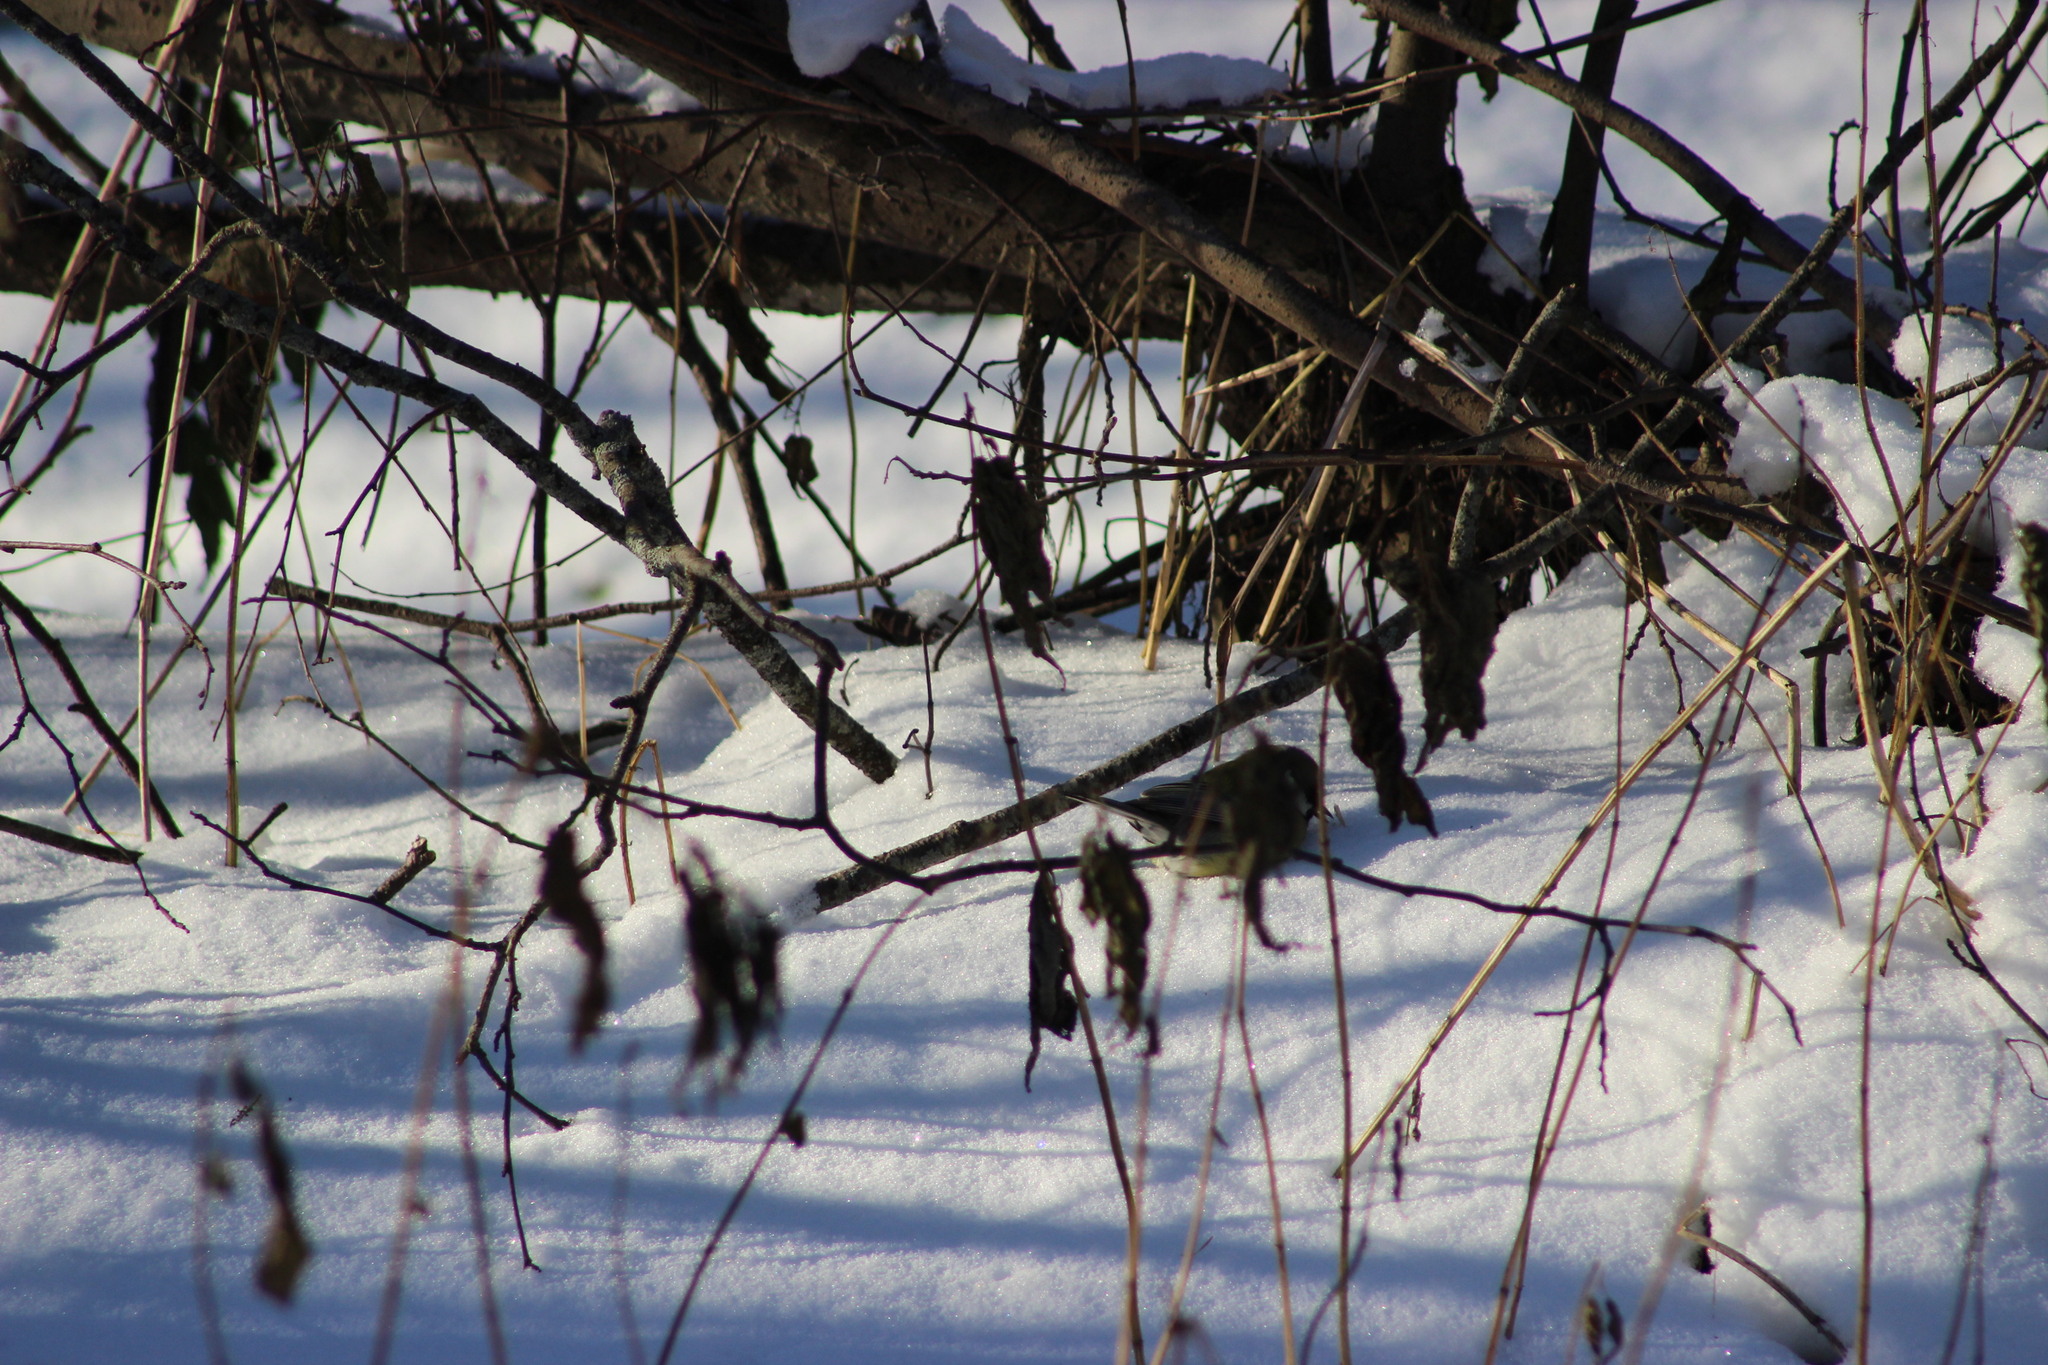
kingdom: Animalia
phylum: Chordata
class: Aves
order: Passeriformes
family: Paridae
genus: Parus
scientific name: Parus major
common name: Great tit
